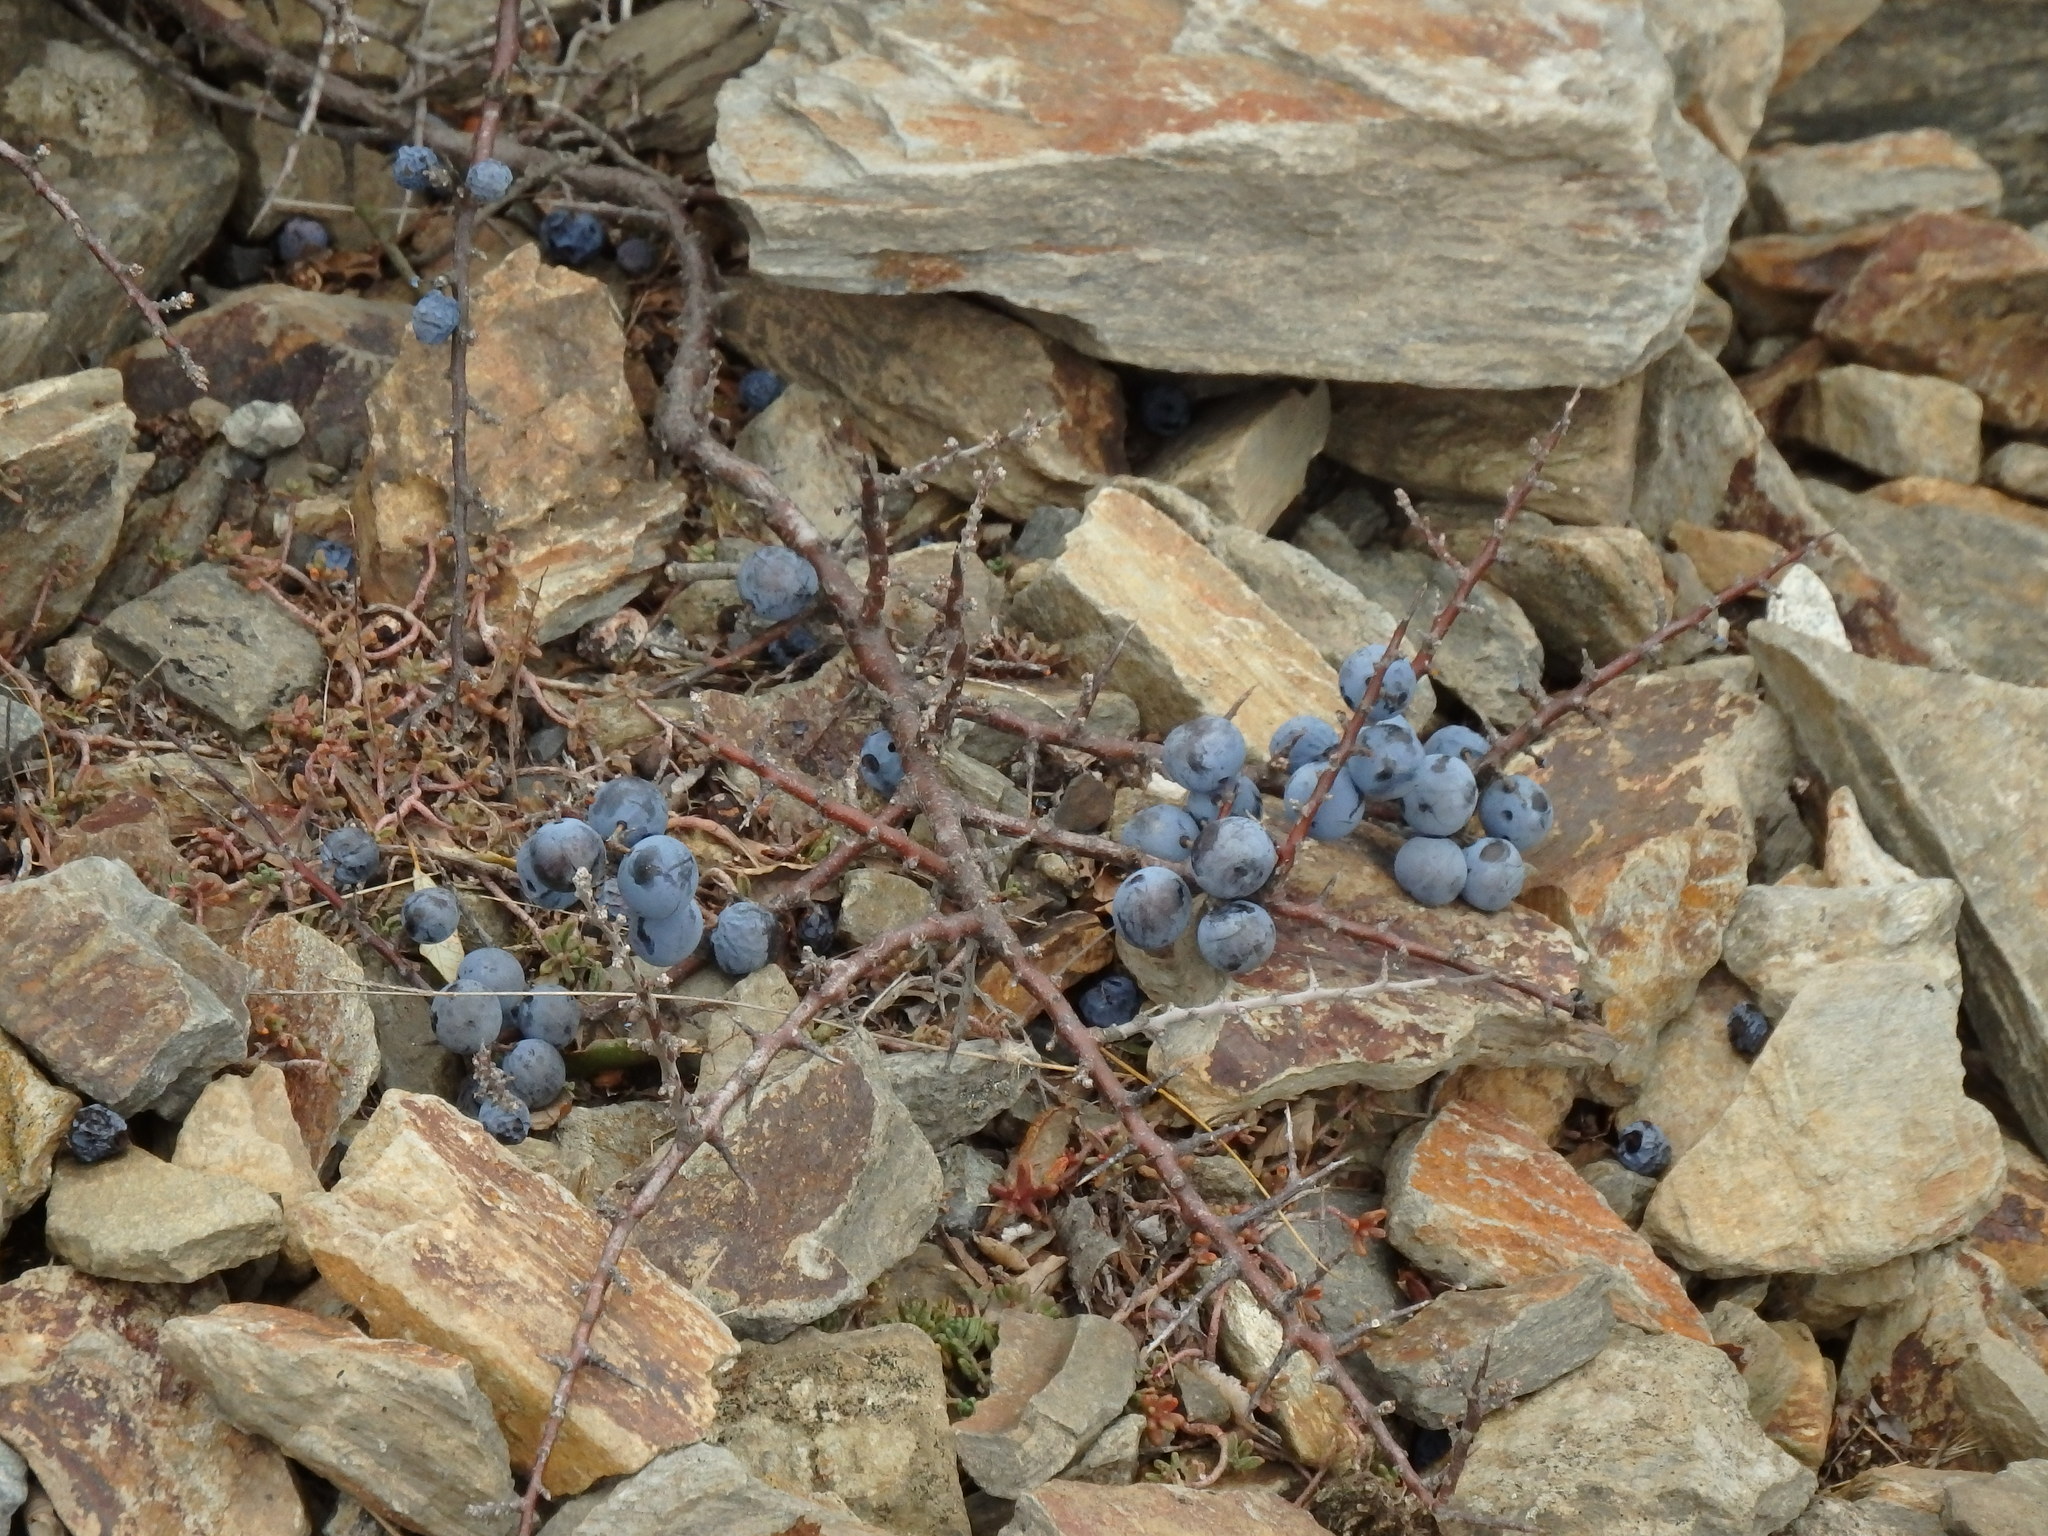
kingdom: Plantae
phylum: Tracheophyta
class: Magnoliopsida
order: Rosales
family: Rosaceae
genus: Prunus
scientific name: Prunus spinosa
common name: Blackthorn
